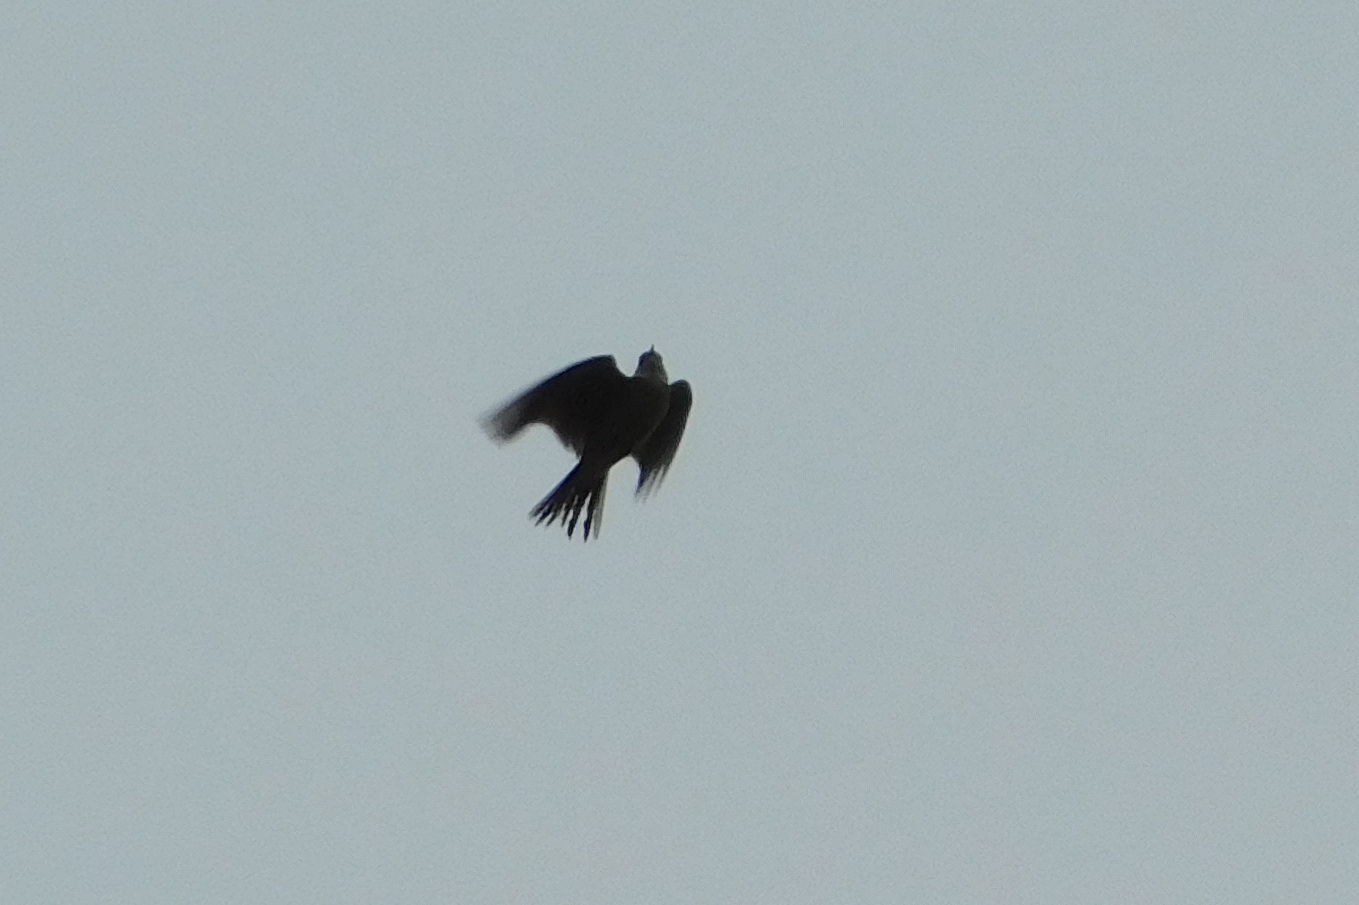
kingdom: Animalia
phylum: Chordata
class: Aves
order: Passeriformes
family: Alaudidae
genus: Alauda
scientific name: Alauda arvensis
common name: Eurasian skylark
